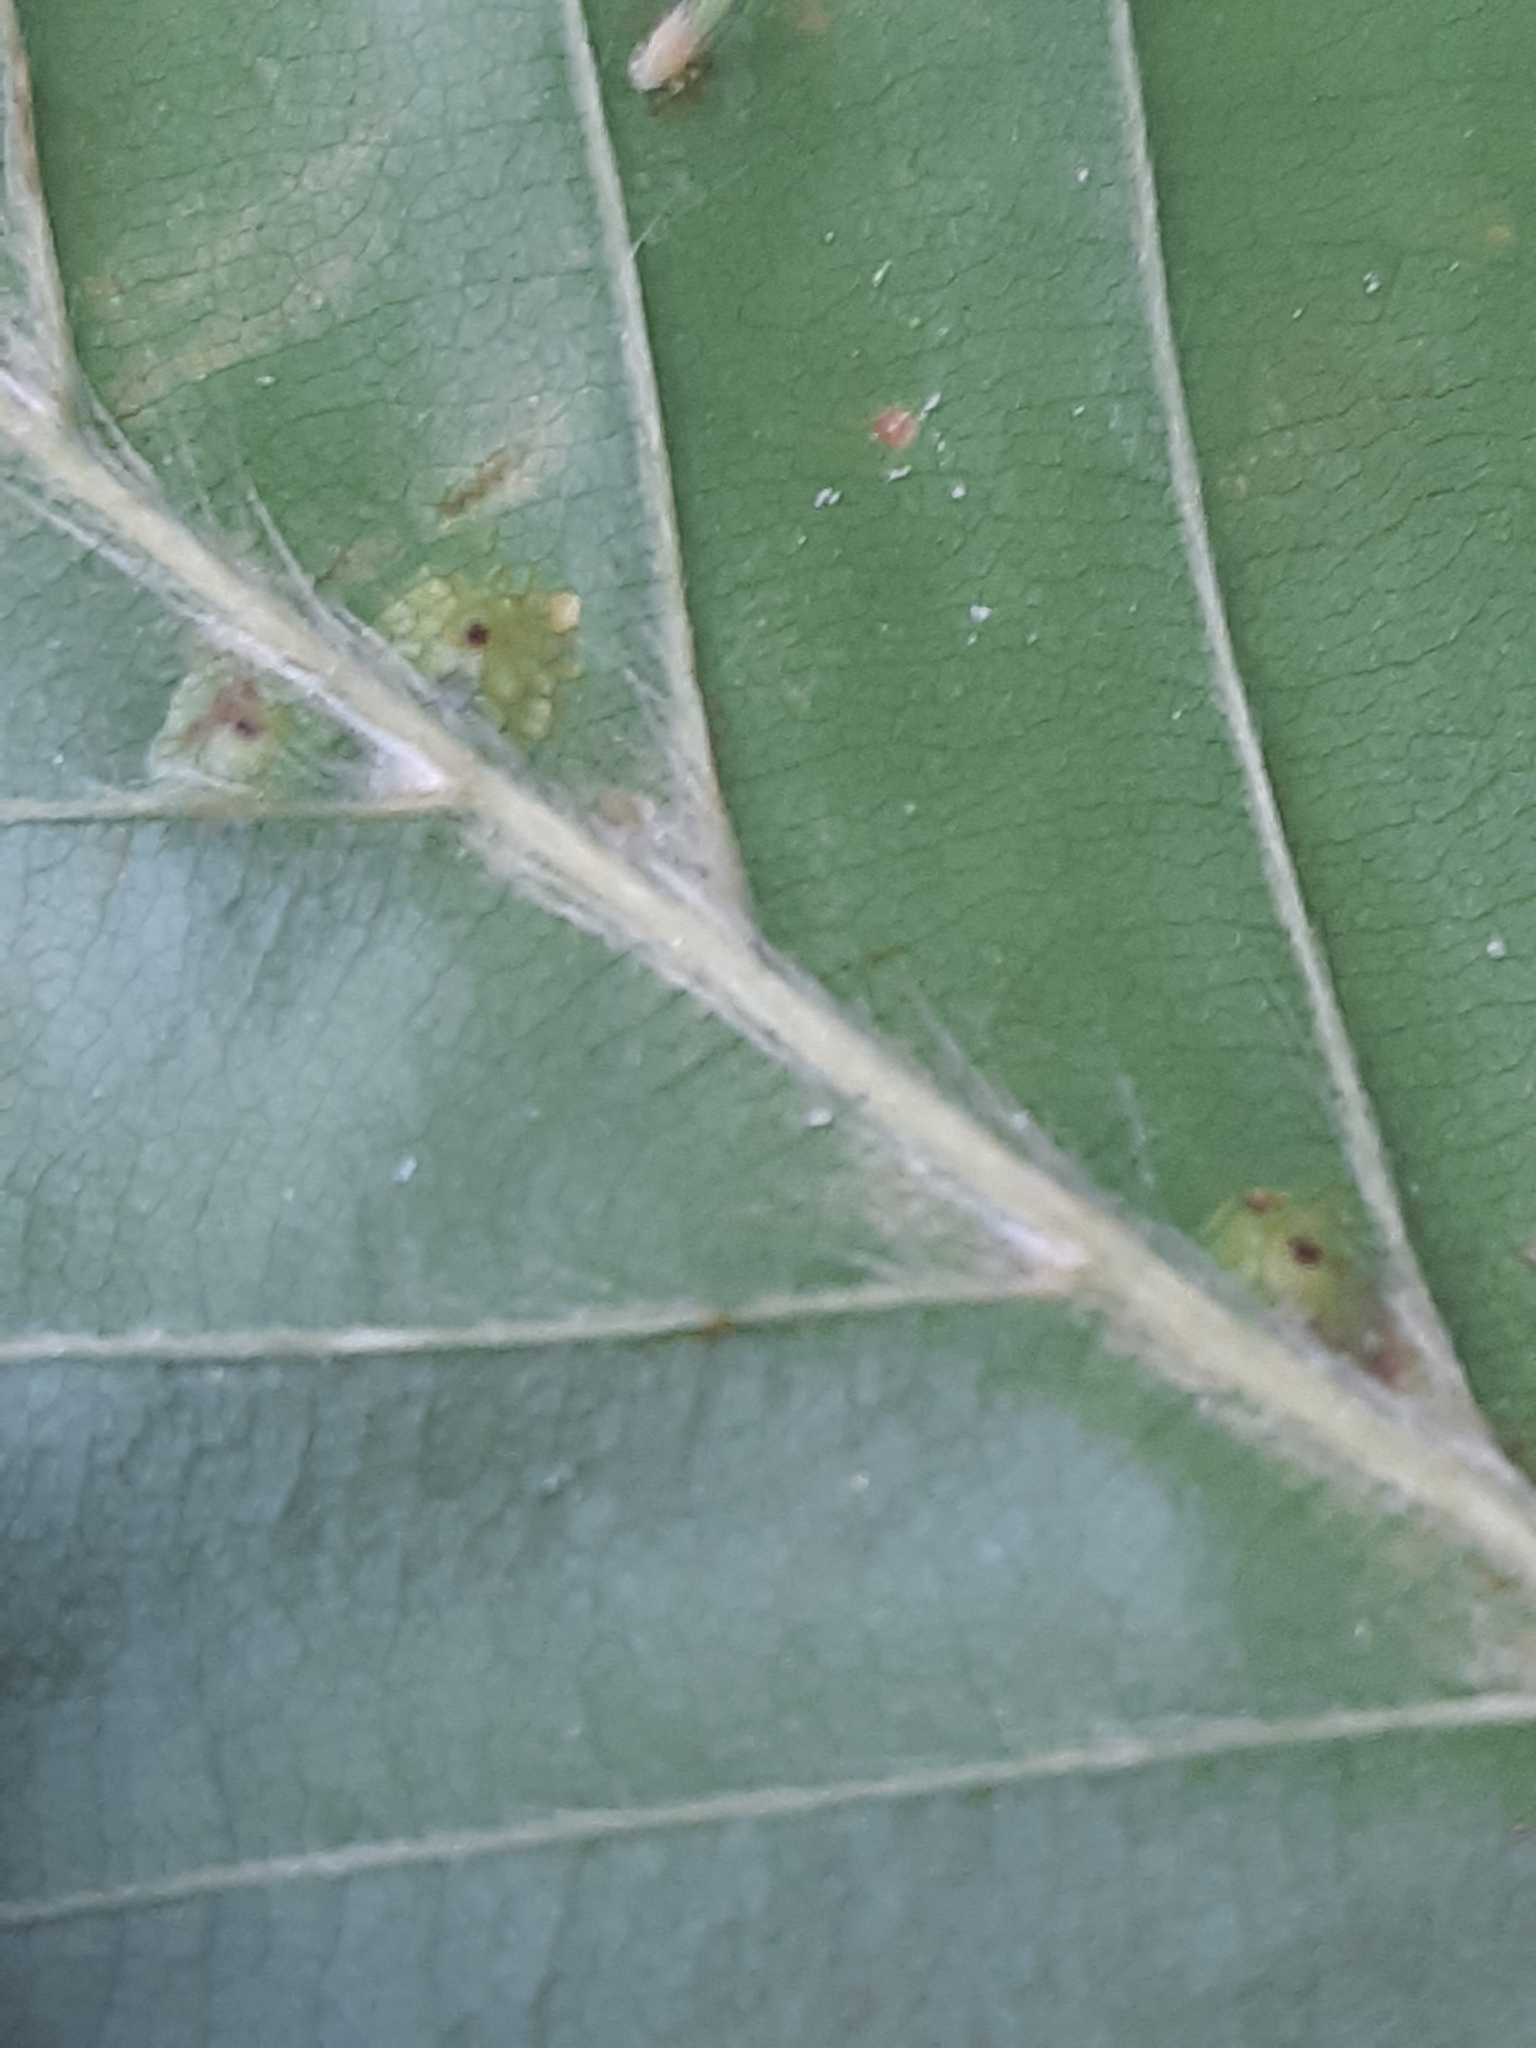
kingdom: Animalia
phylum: Arthropoda
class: Insecta
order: Diptera
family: Cecidomyiidae
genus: Hartigiola
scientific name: Hartigiola annulipes
